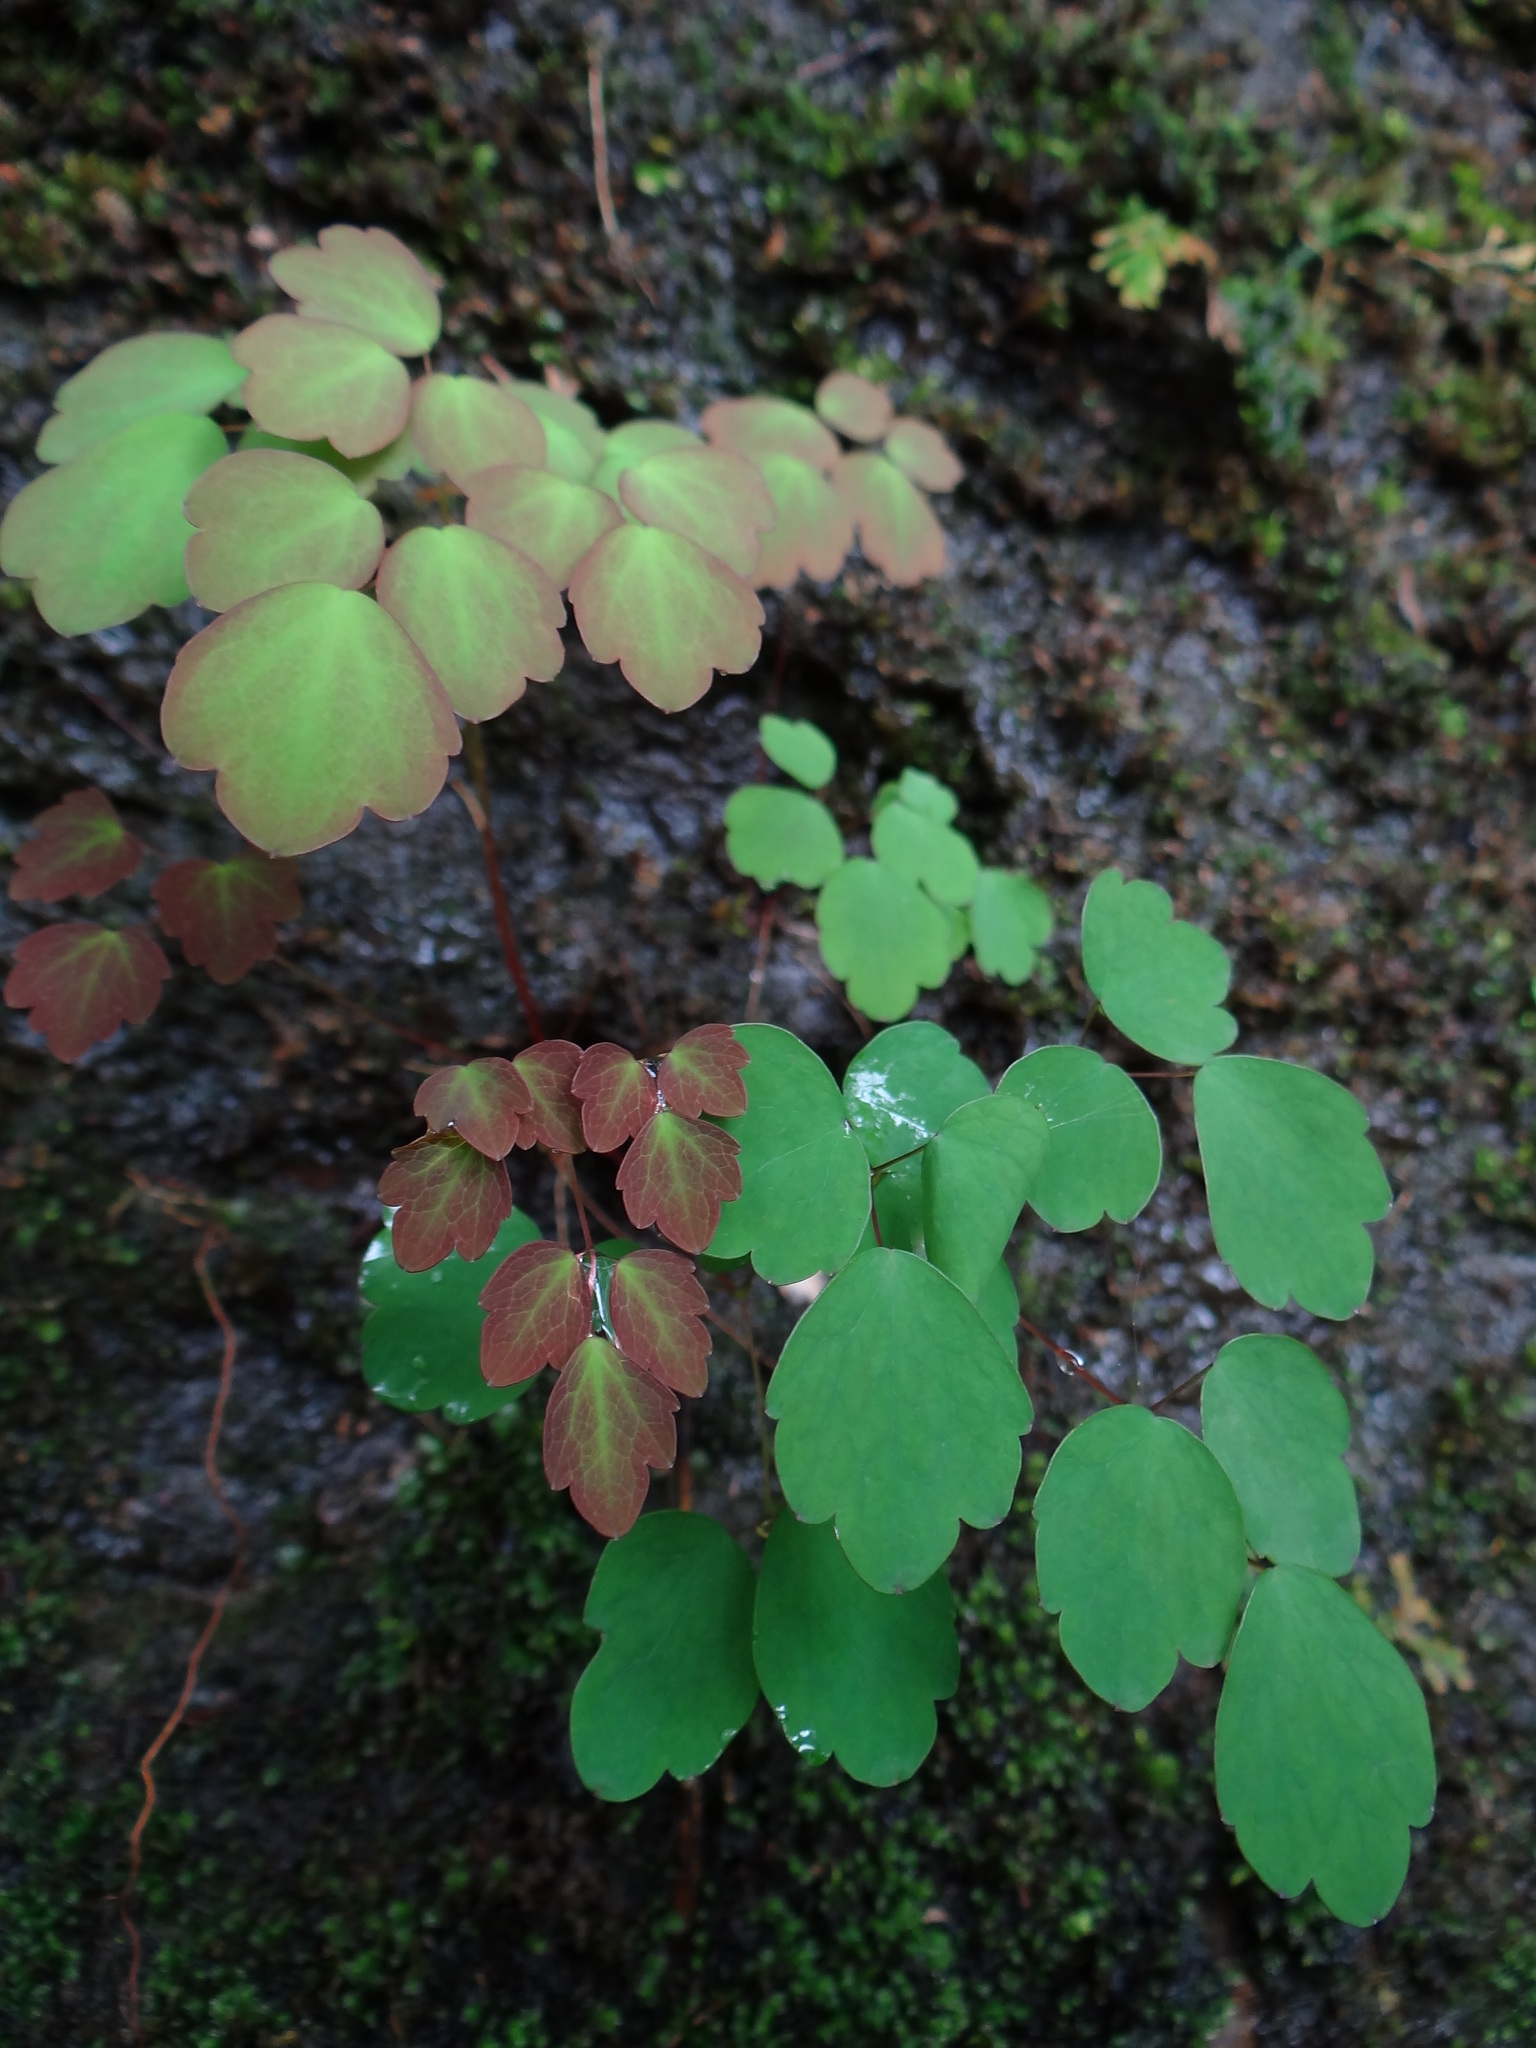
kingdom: Plantae
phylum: Tracheophyta
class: Magnoliopsida
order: Ranunculales
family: Ranunculaceae
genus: Thalictrum
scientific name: Thalictrum urbaini
